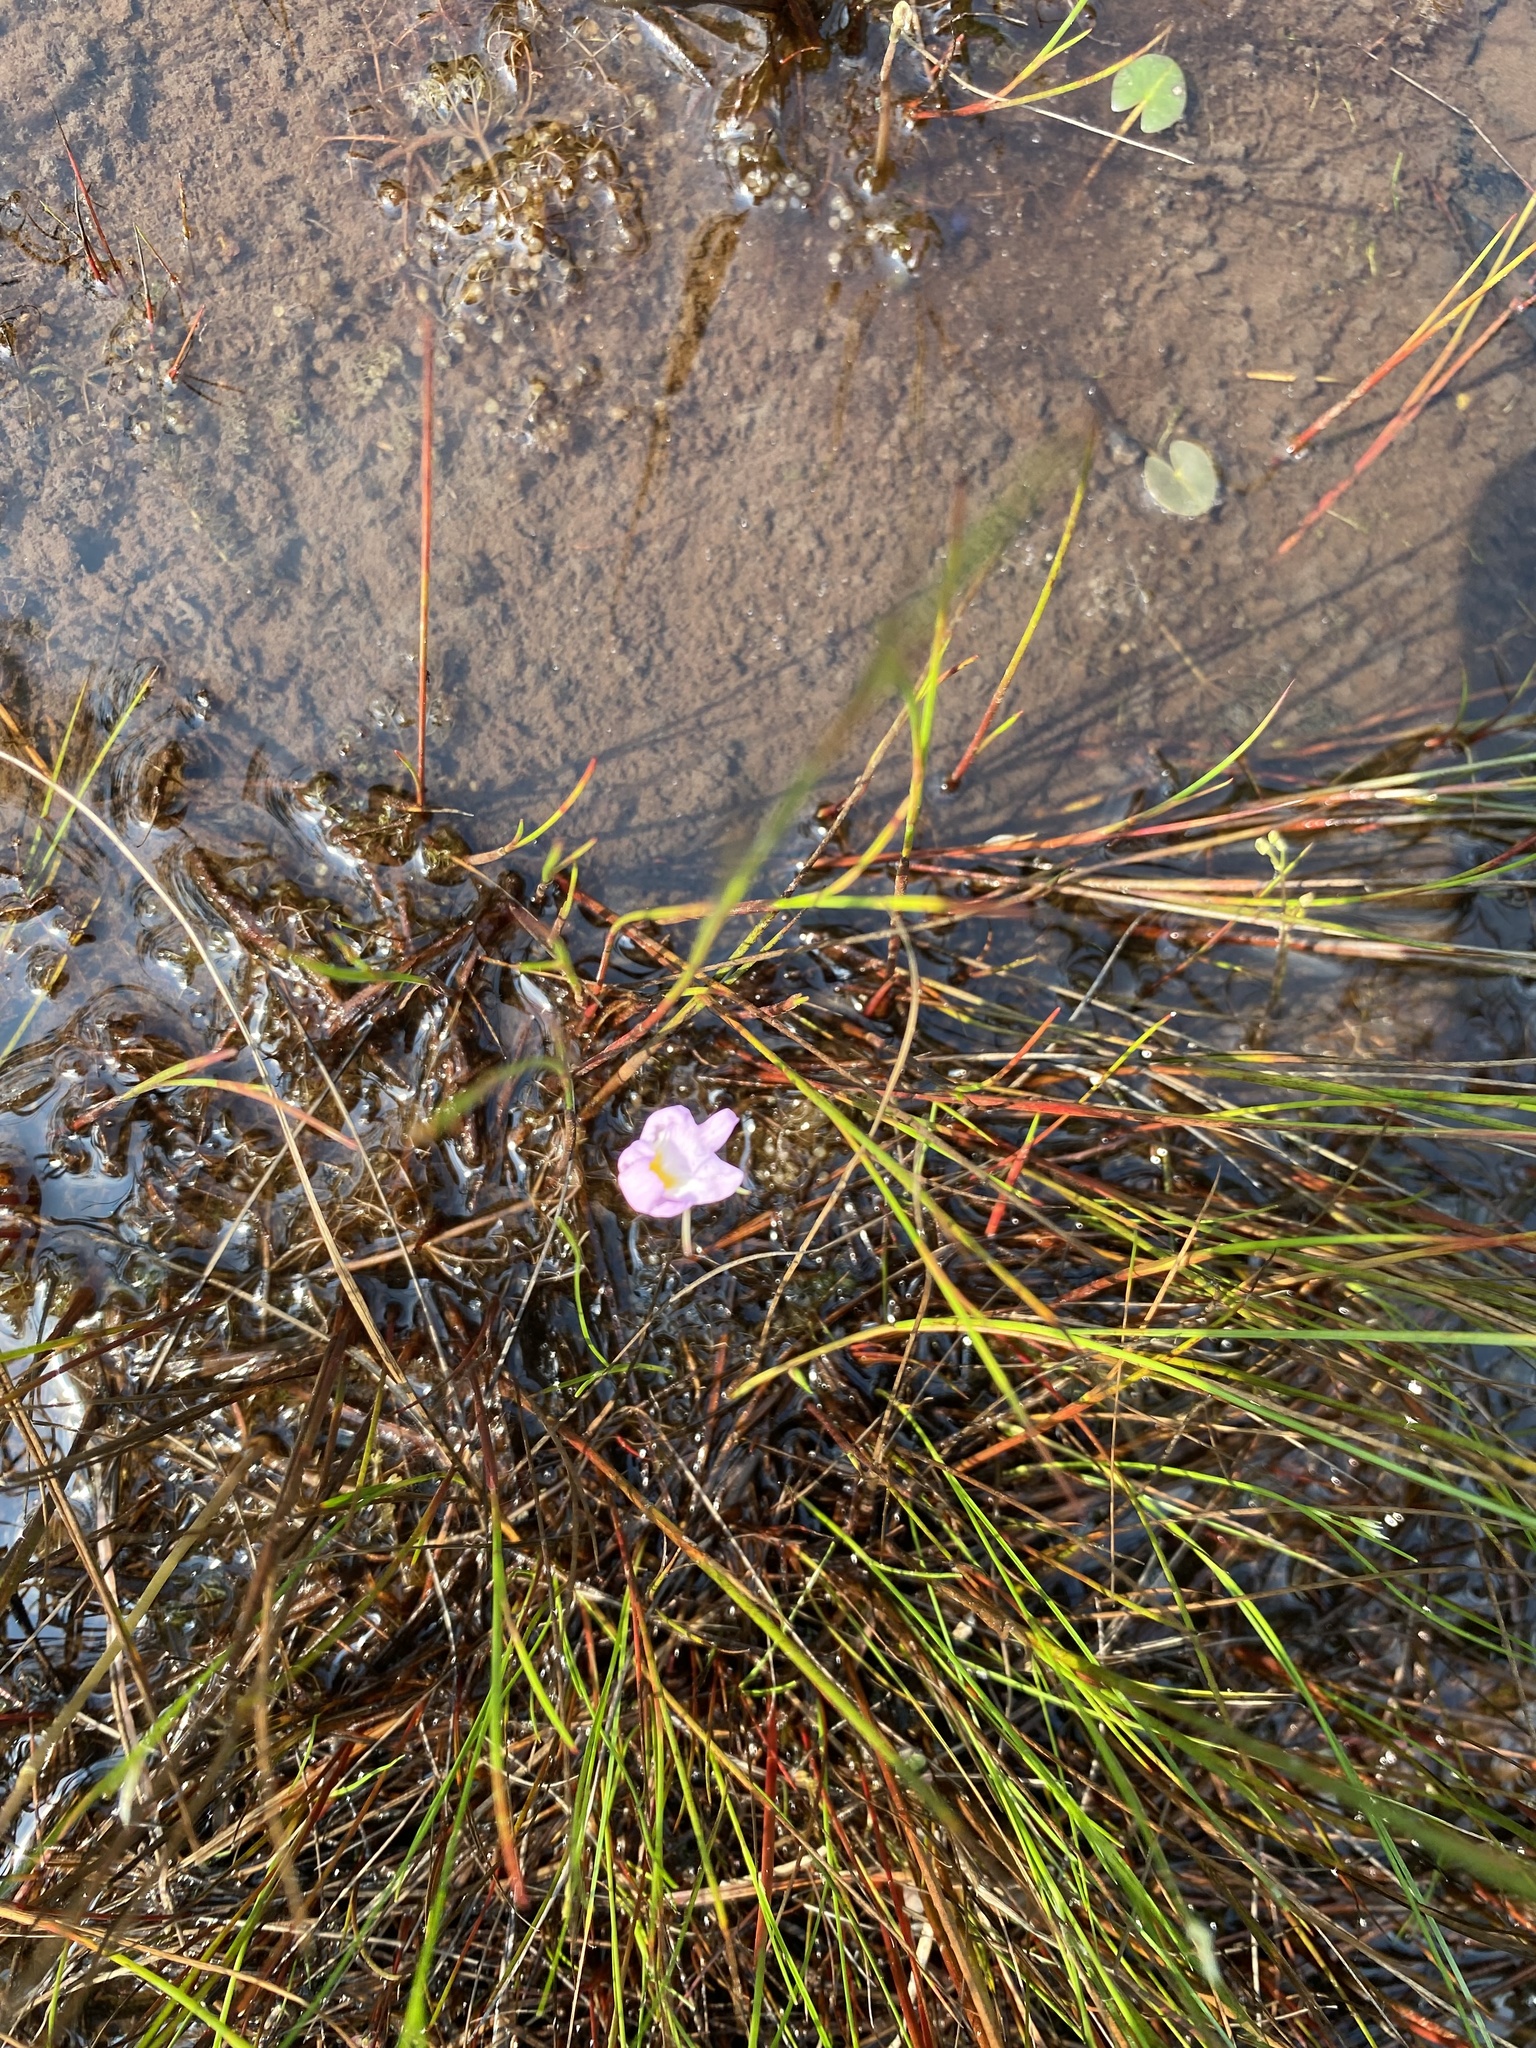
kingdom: Plantae
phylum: Tracheophyta
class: Magnoliopsida
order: Lamiales
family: Lentibulariaceae
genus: Utricularia
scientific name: Utricularia purpurea
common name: Eastern purple bladderwort
